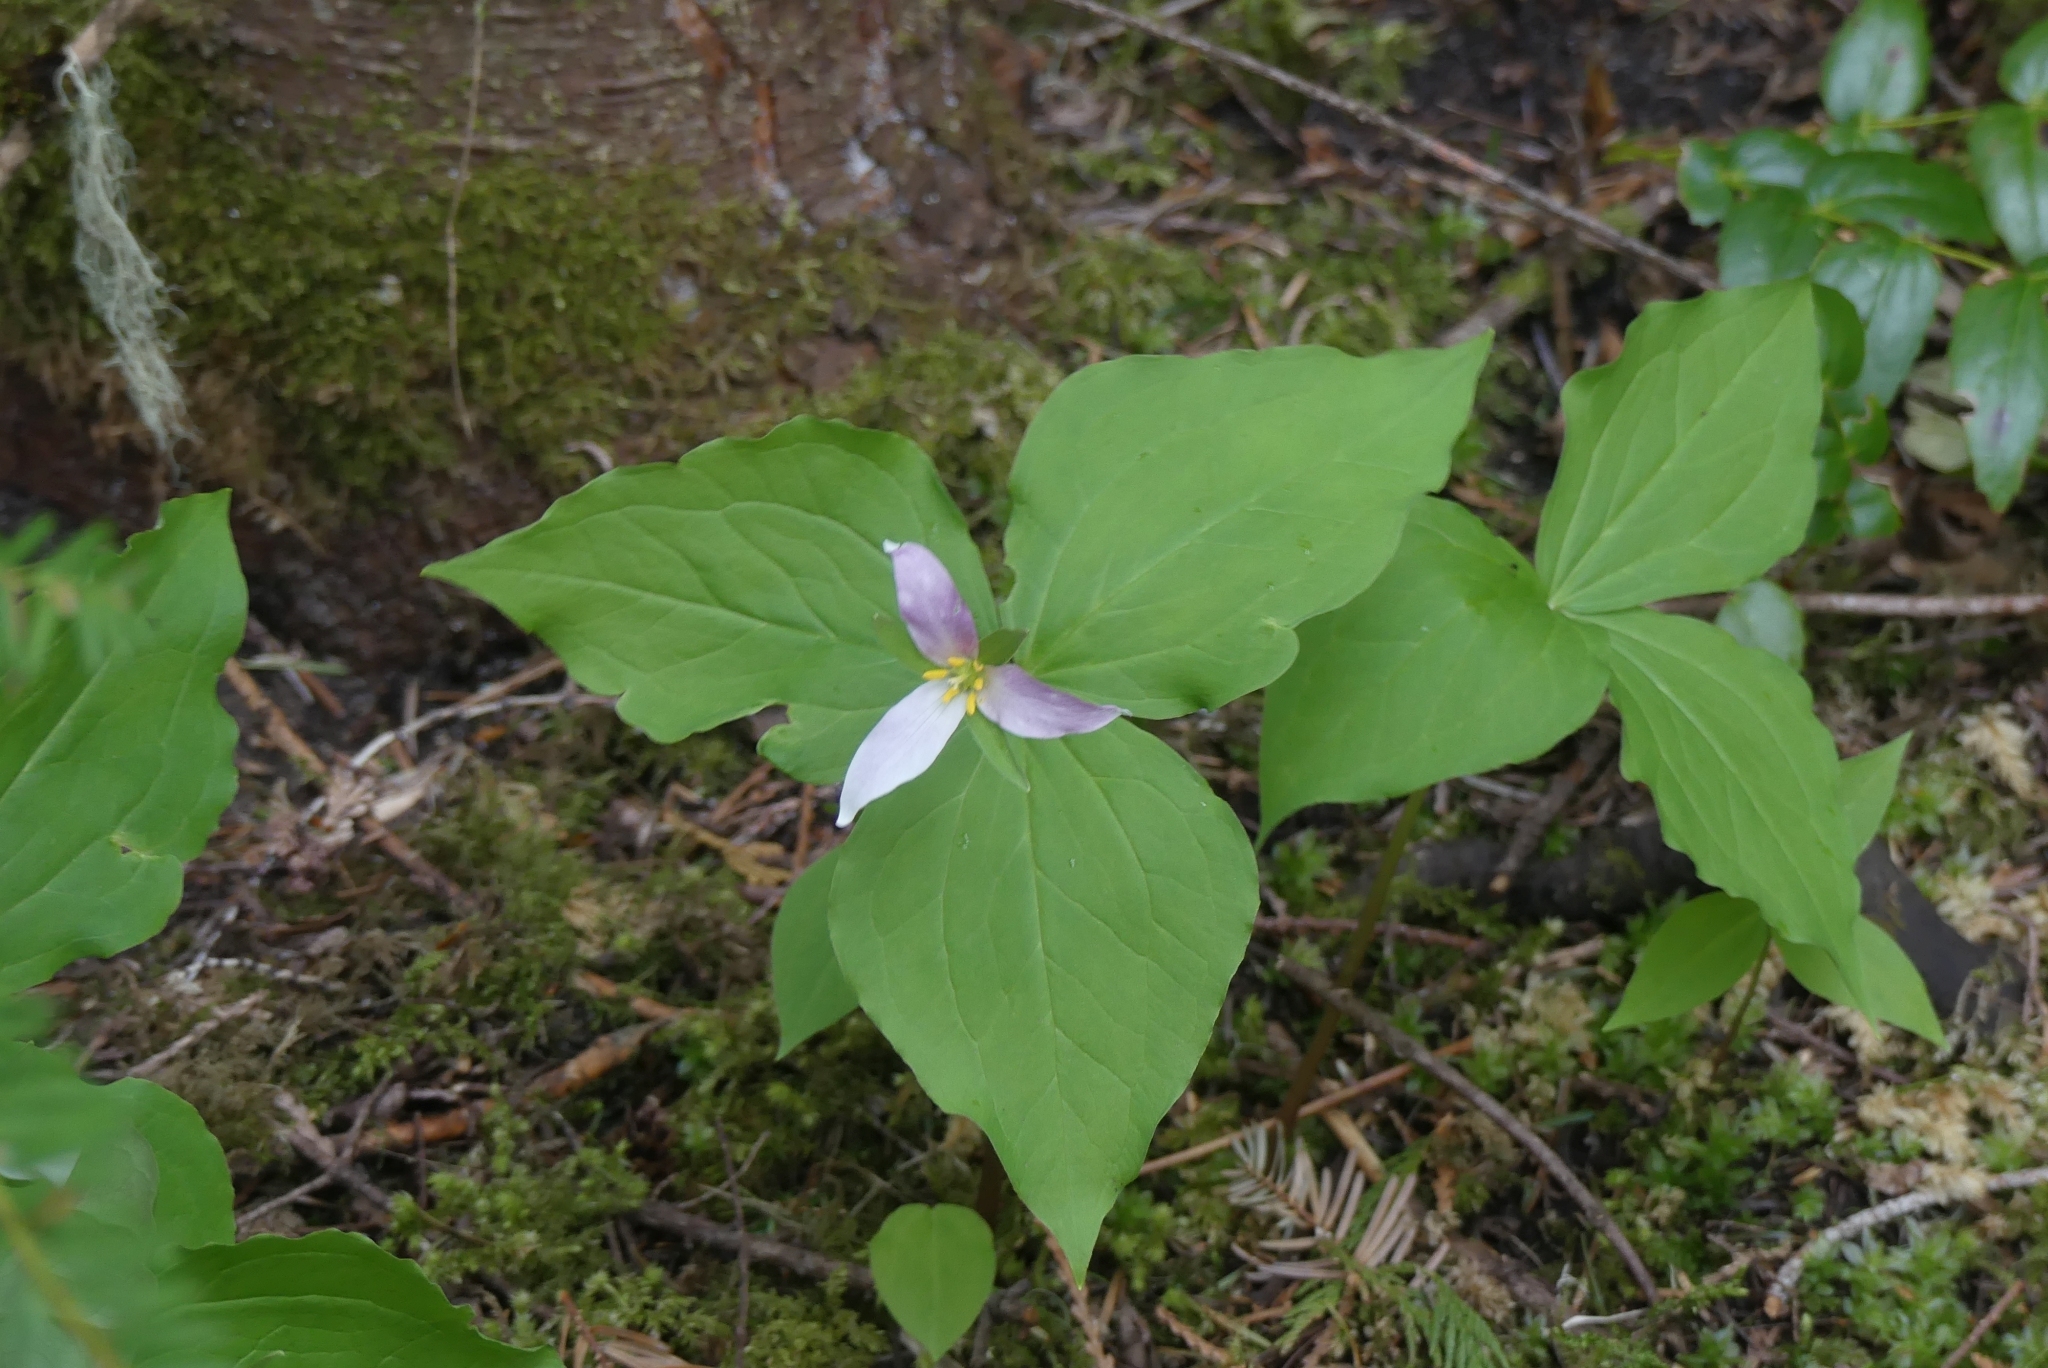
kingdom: Plantae
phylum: Tracheophyta
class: Liliopsida
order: Liliales
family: Melanthiaceae
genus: Trillium
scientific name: Trillium ovatum
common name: Pacific trillium
